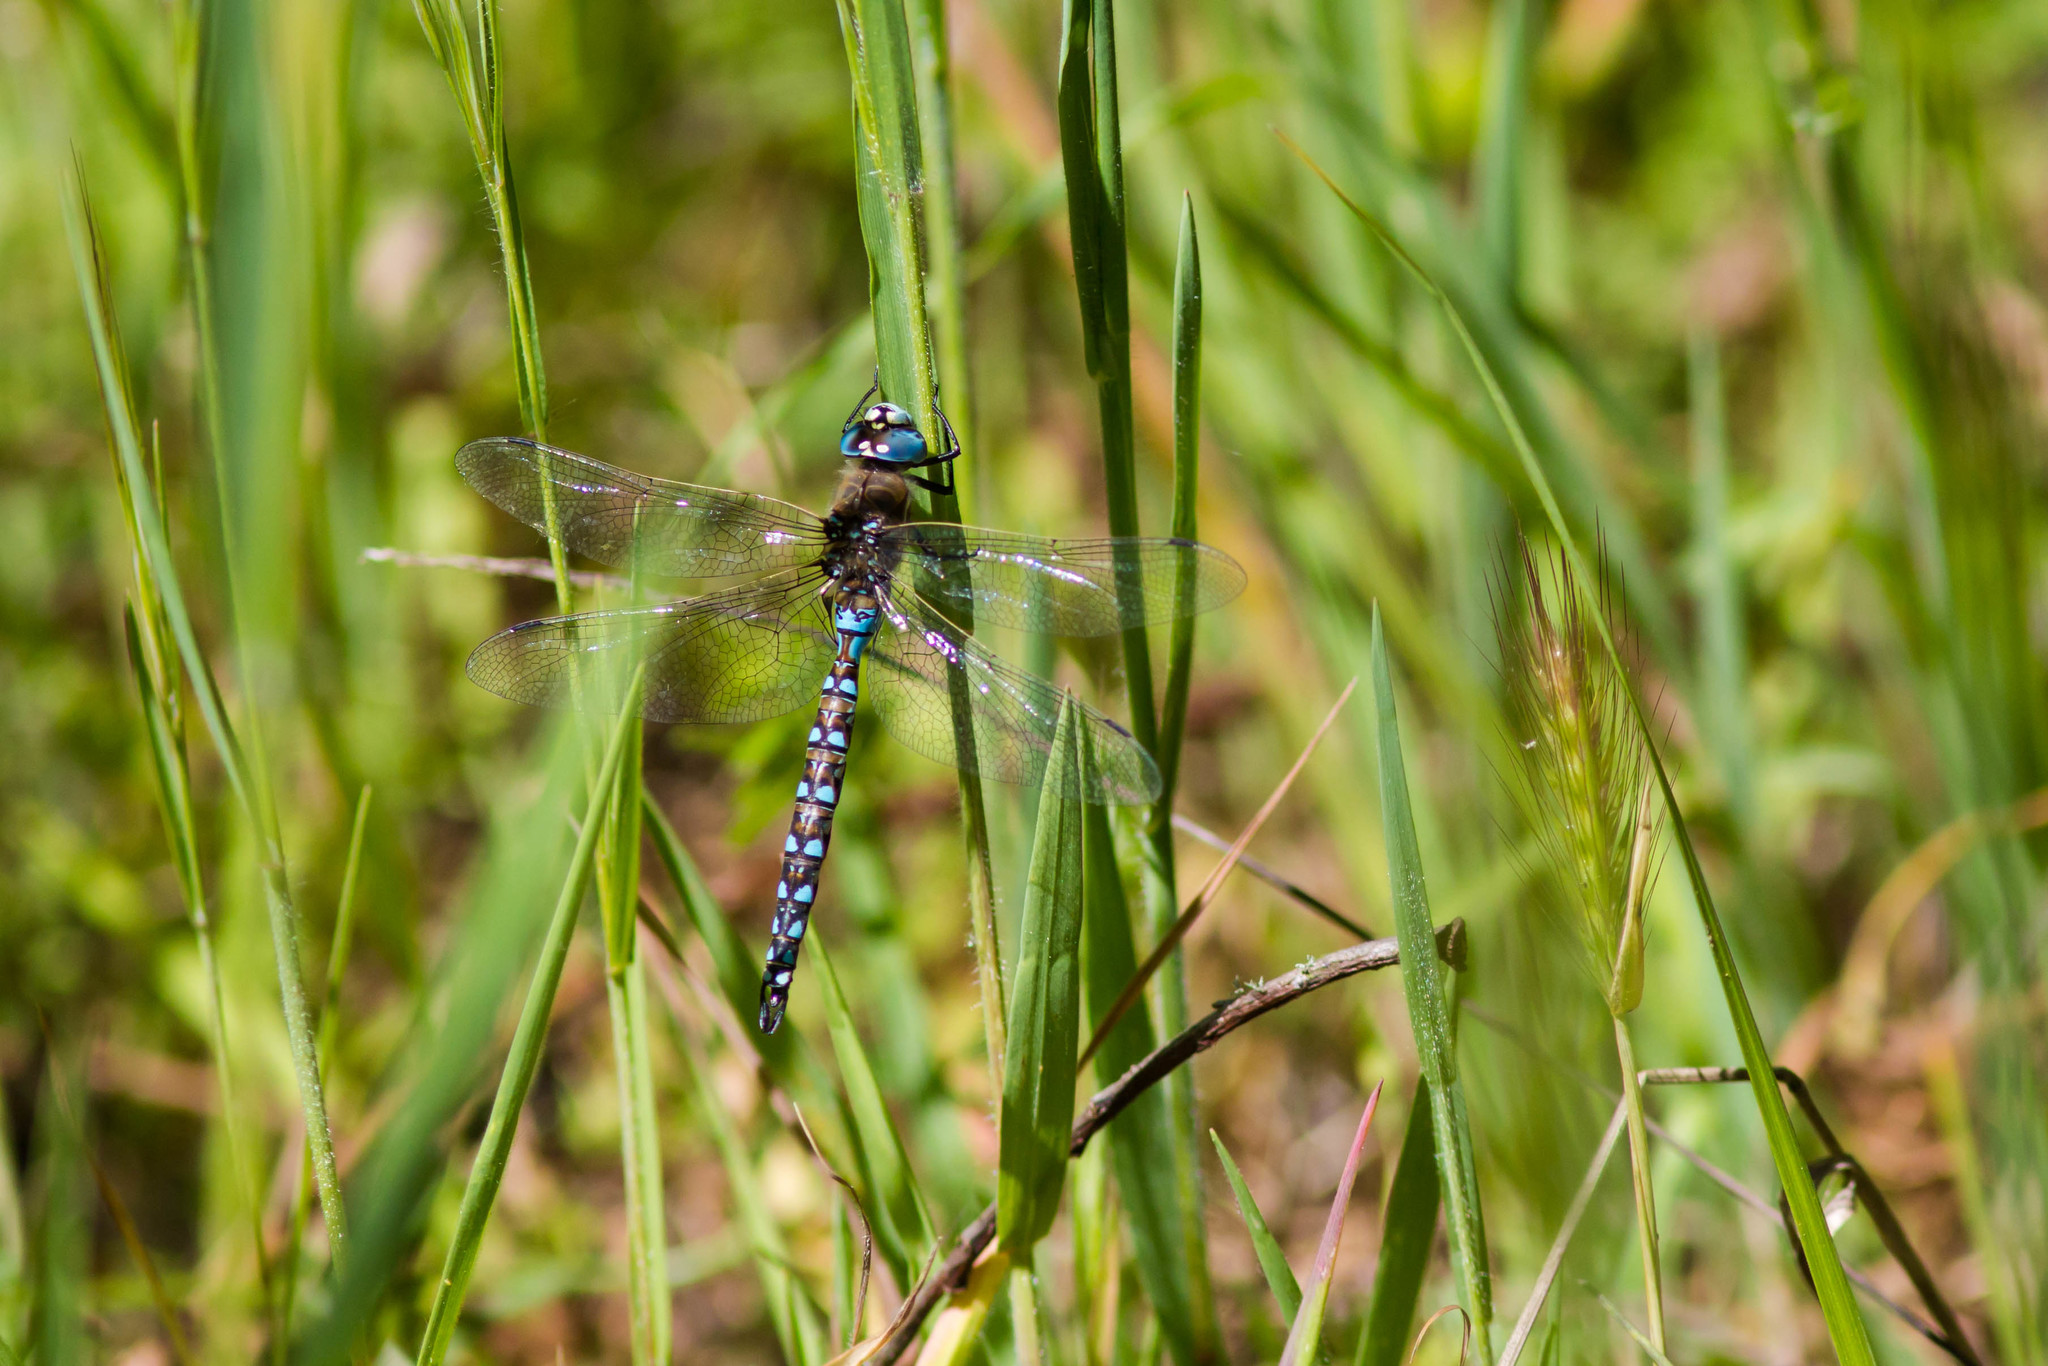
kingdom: Animalia
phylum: Arthropoda
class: Insecta
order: Odonata
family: Aeshnidae
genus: Rhionaeschna
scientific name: Rhionaeschna californica
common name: California darner
